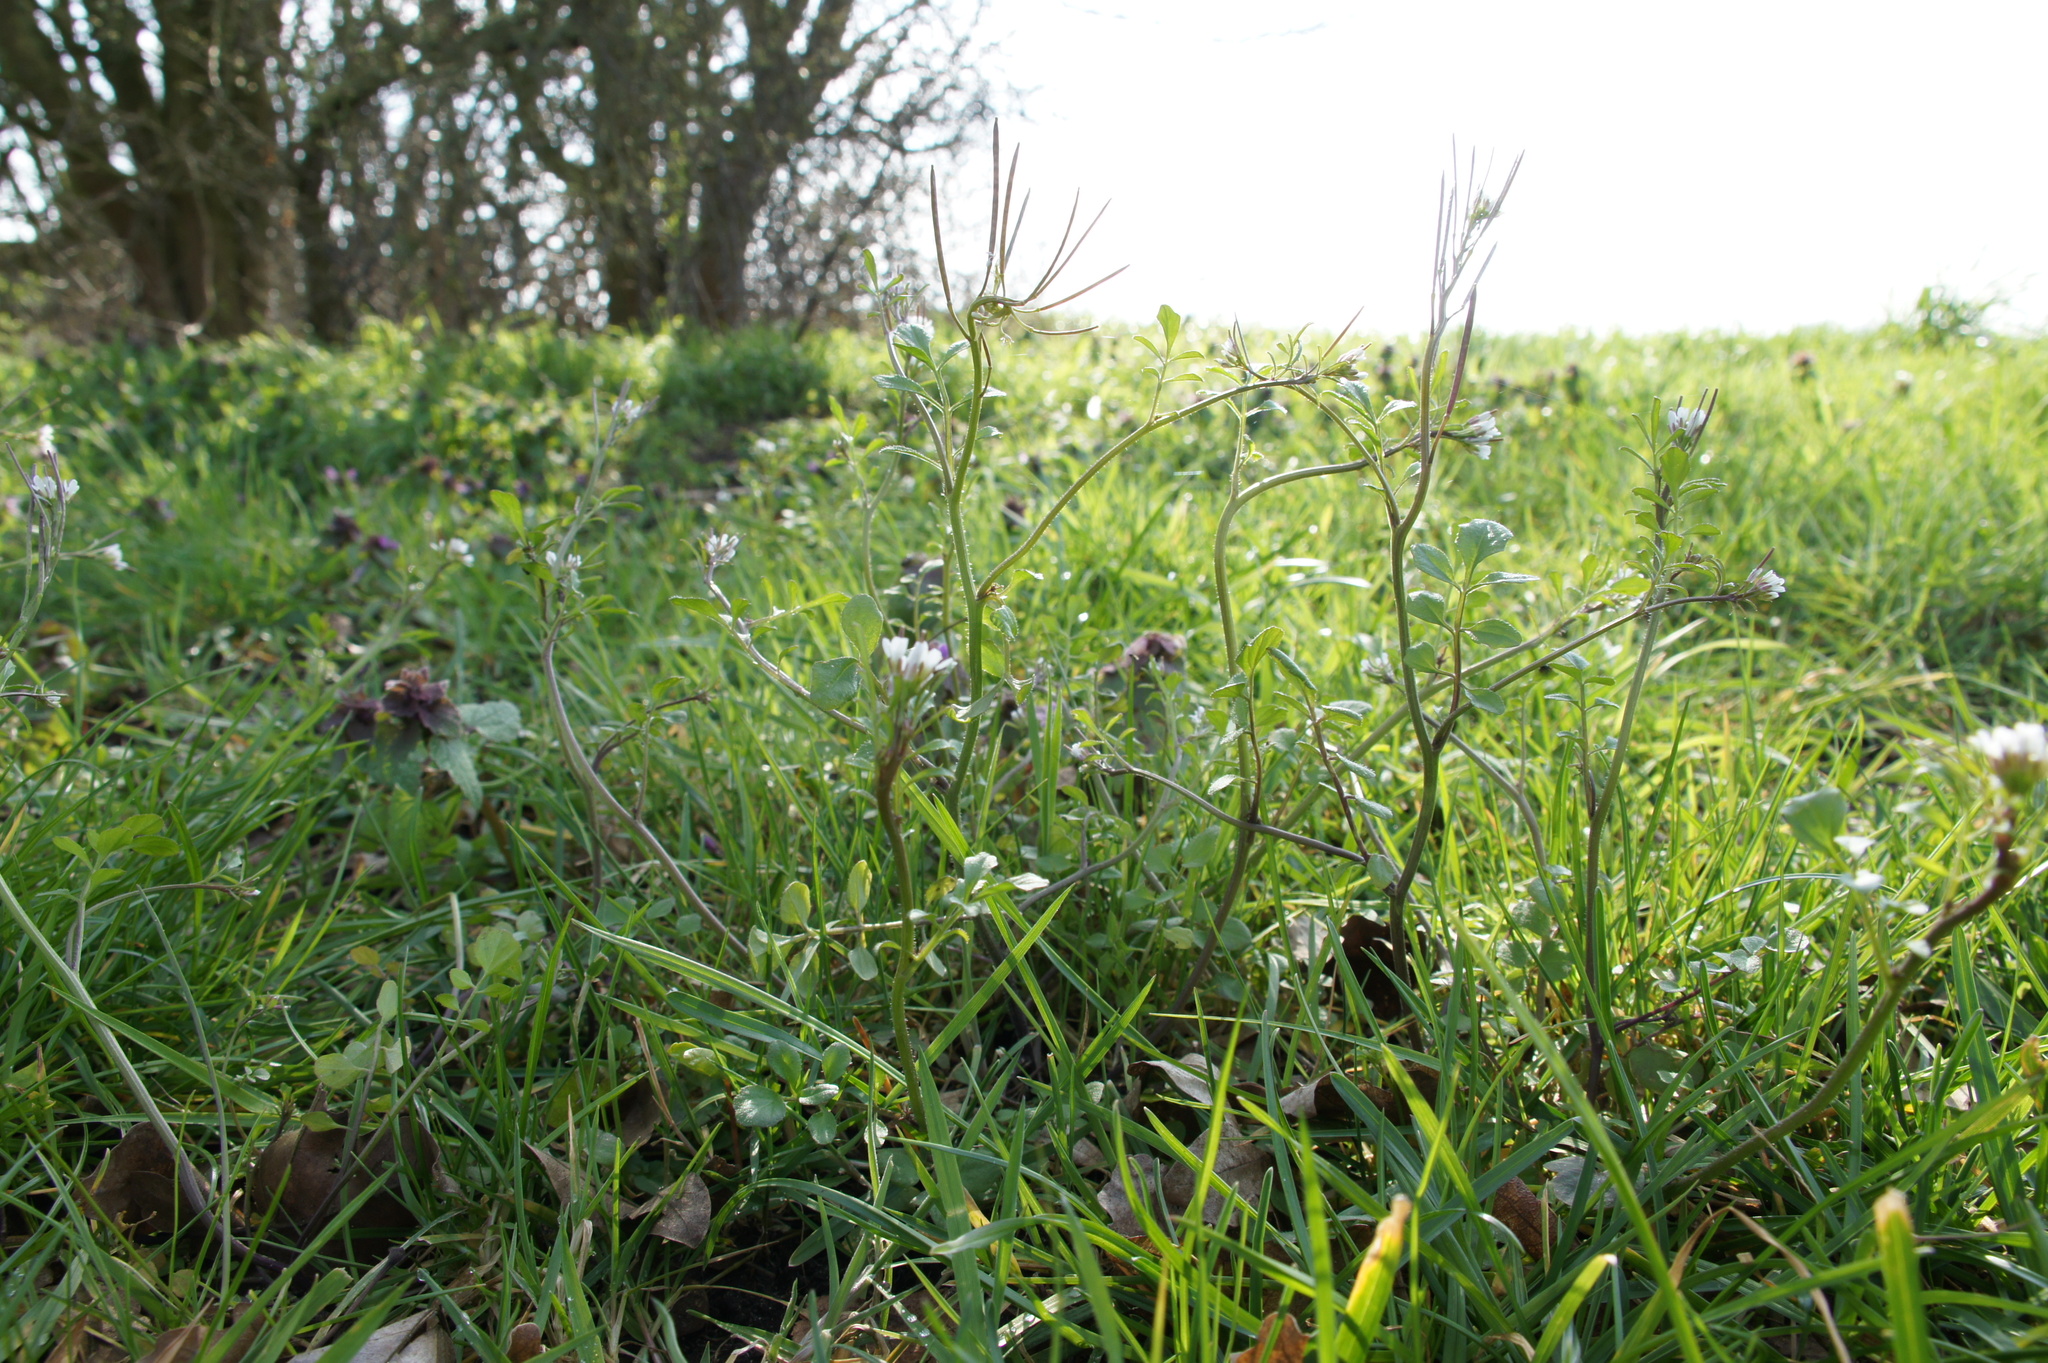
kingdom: Plantae
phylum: Tracheophyta
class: Magnoliopsida
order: Brassicales
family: Brassicaceae
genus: Cardamine
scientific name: Cardamine hirsuta
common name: Hairy bittercress
